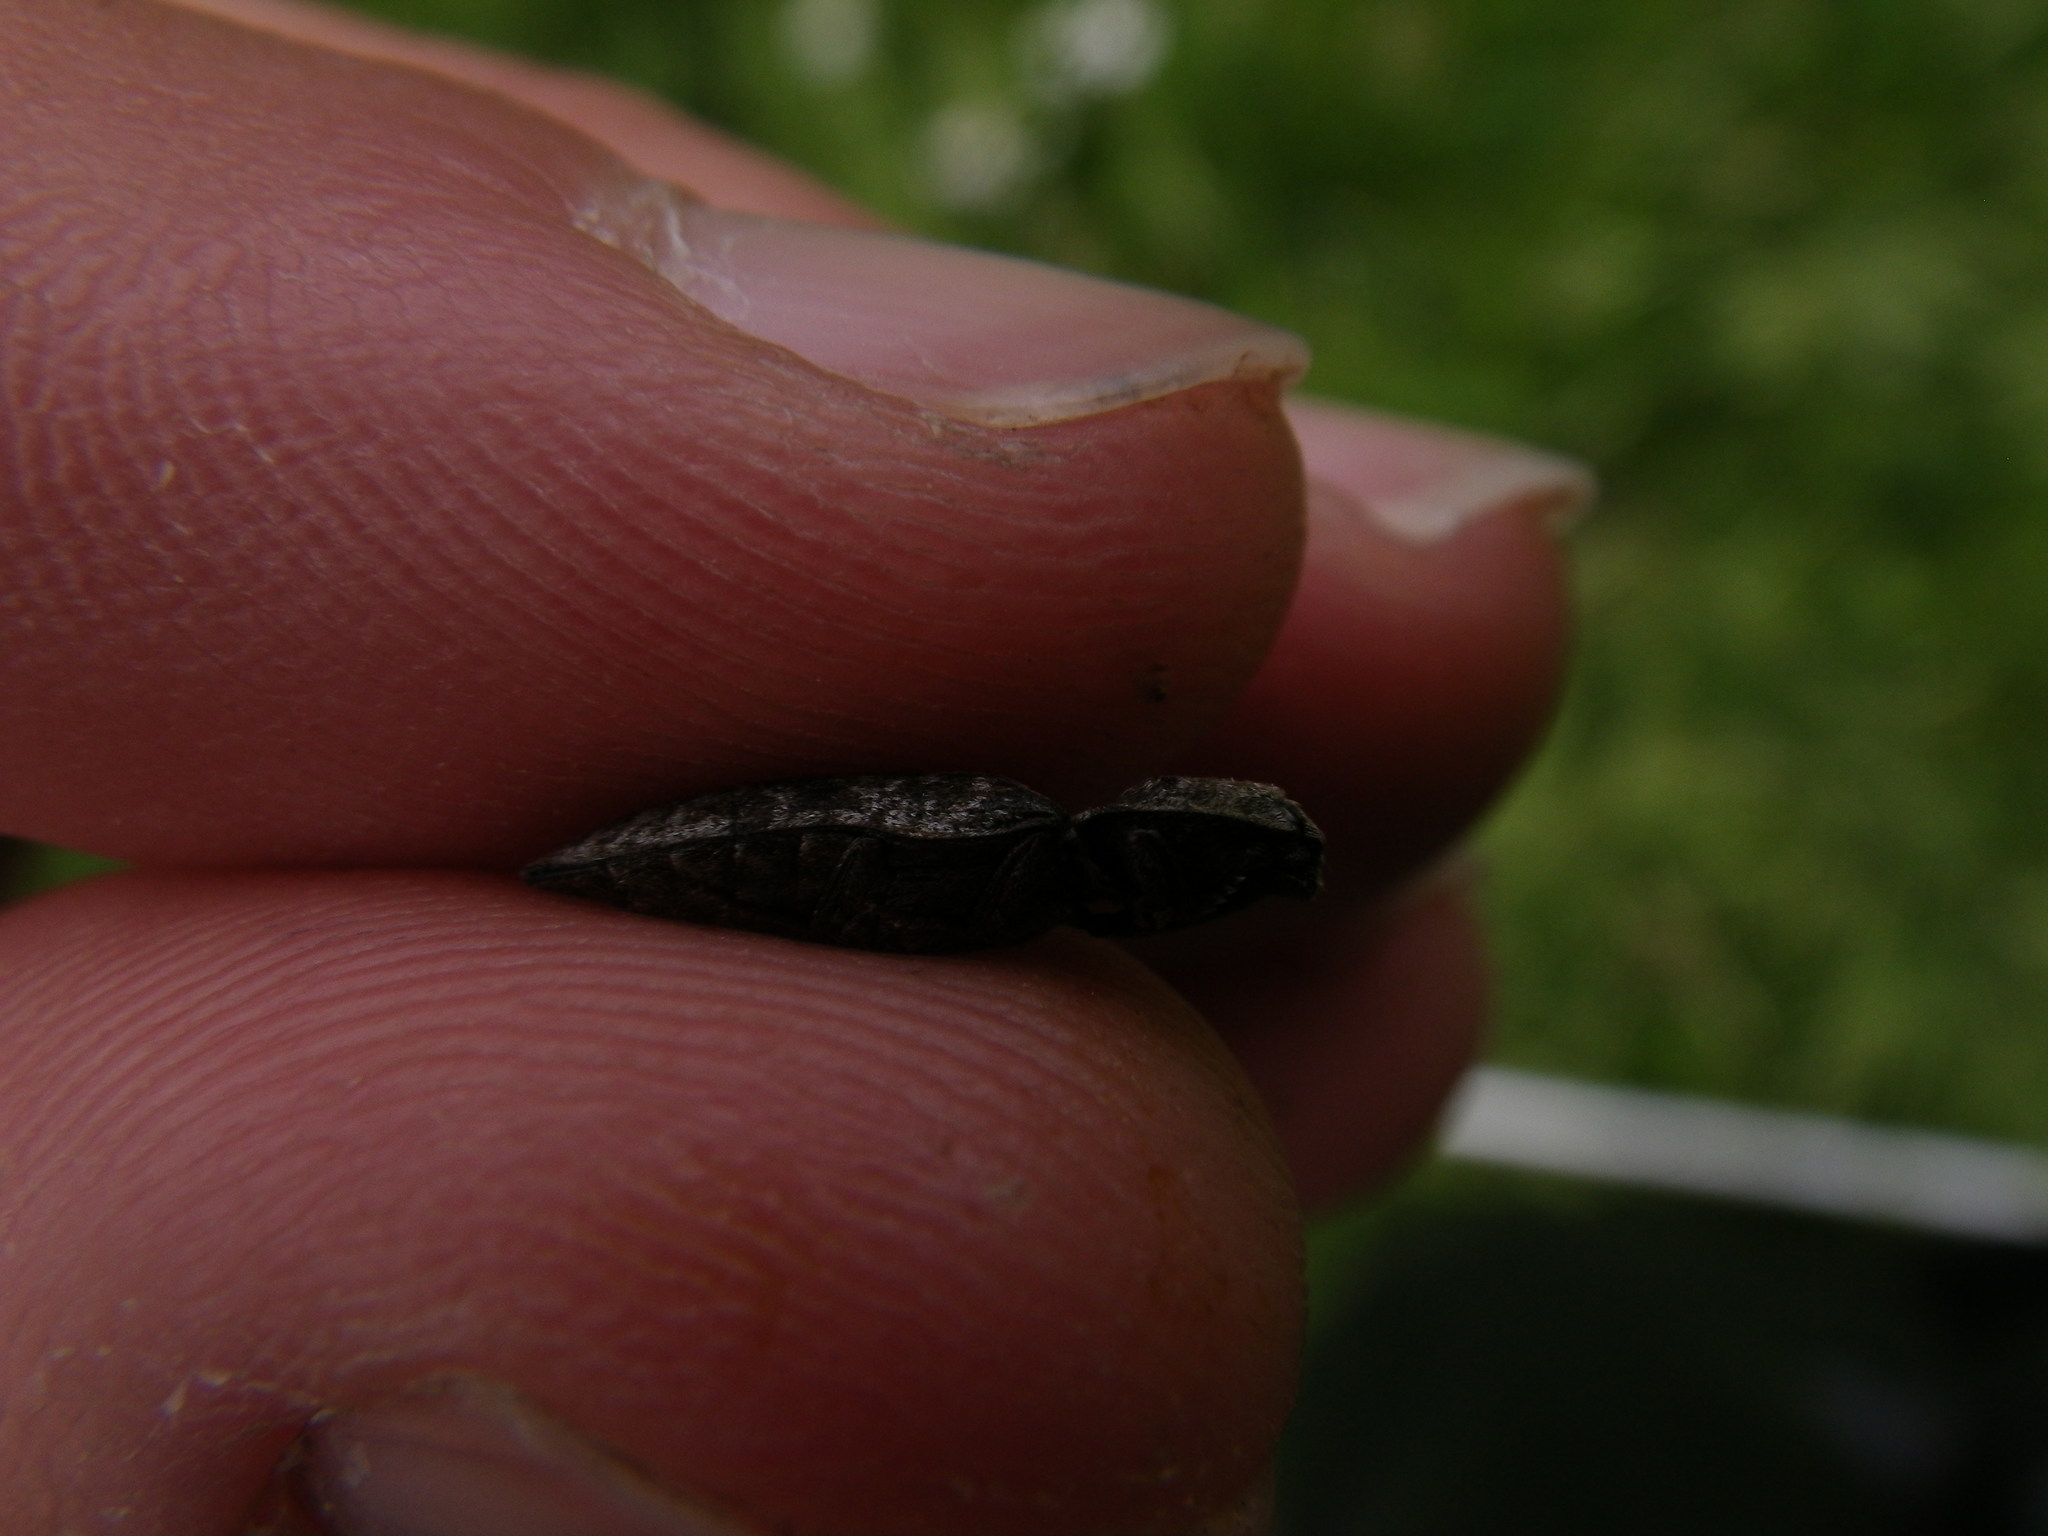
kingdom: Animalia
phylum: Arthropoda
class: Insecta
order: Coleoptera
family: Elateridae
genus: Agrypnus
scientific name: Agrypnus murinus
